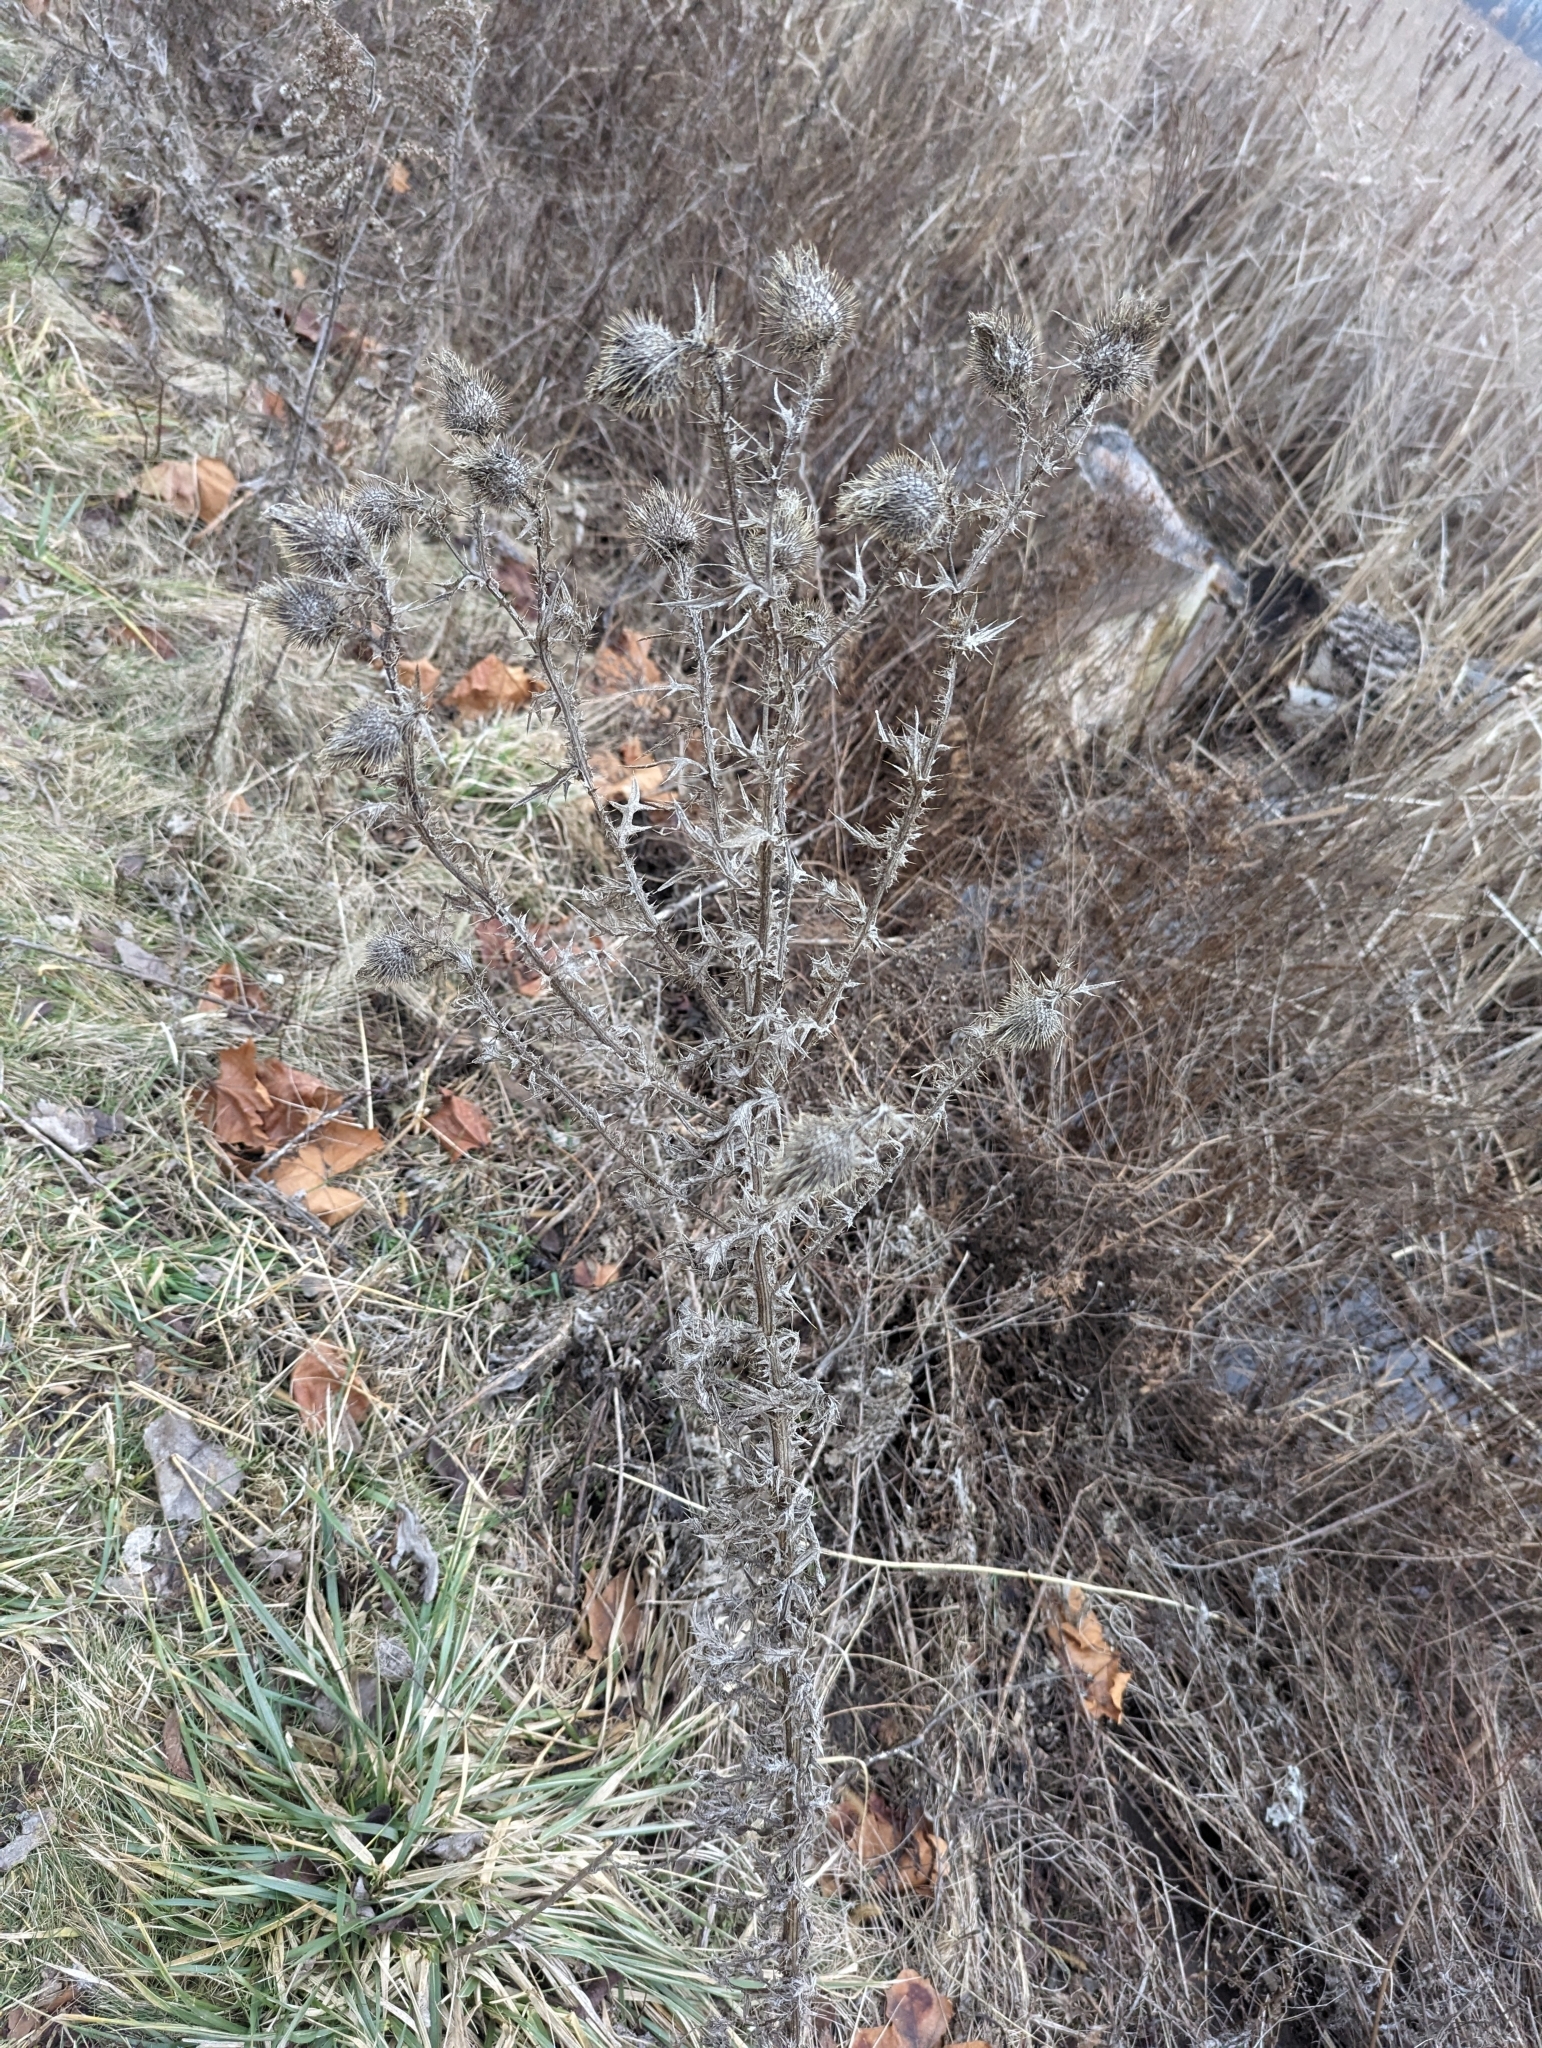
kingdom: Plantae
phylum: Tracheophyta
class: Magnoliopsida
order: Asterales
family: Asteraceae
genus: Cirsium
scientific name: Cirsium vulgare
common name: Bull thistle
